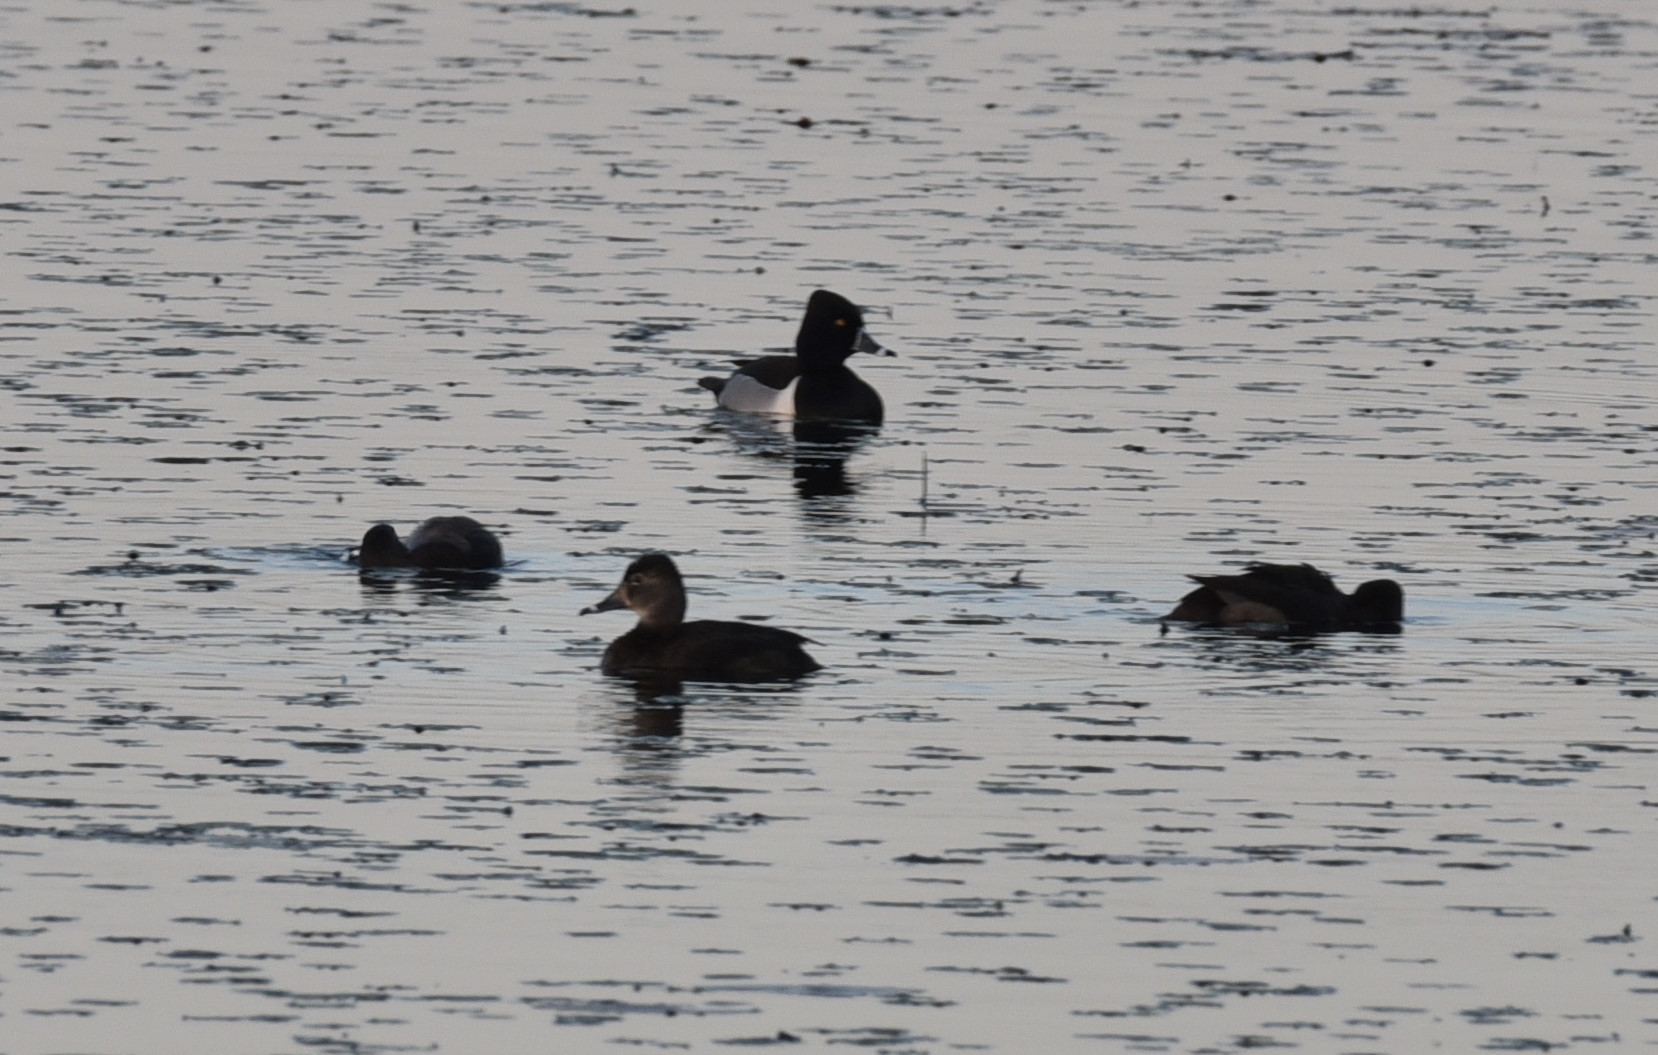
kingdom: Animalia
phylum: Chordata
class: Aves
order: Anseriformes
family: Anatidae
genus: Aythya
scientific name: Aythya collaris
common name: Ring-necked duck
